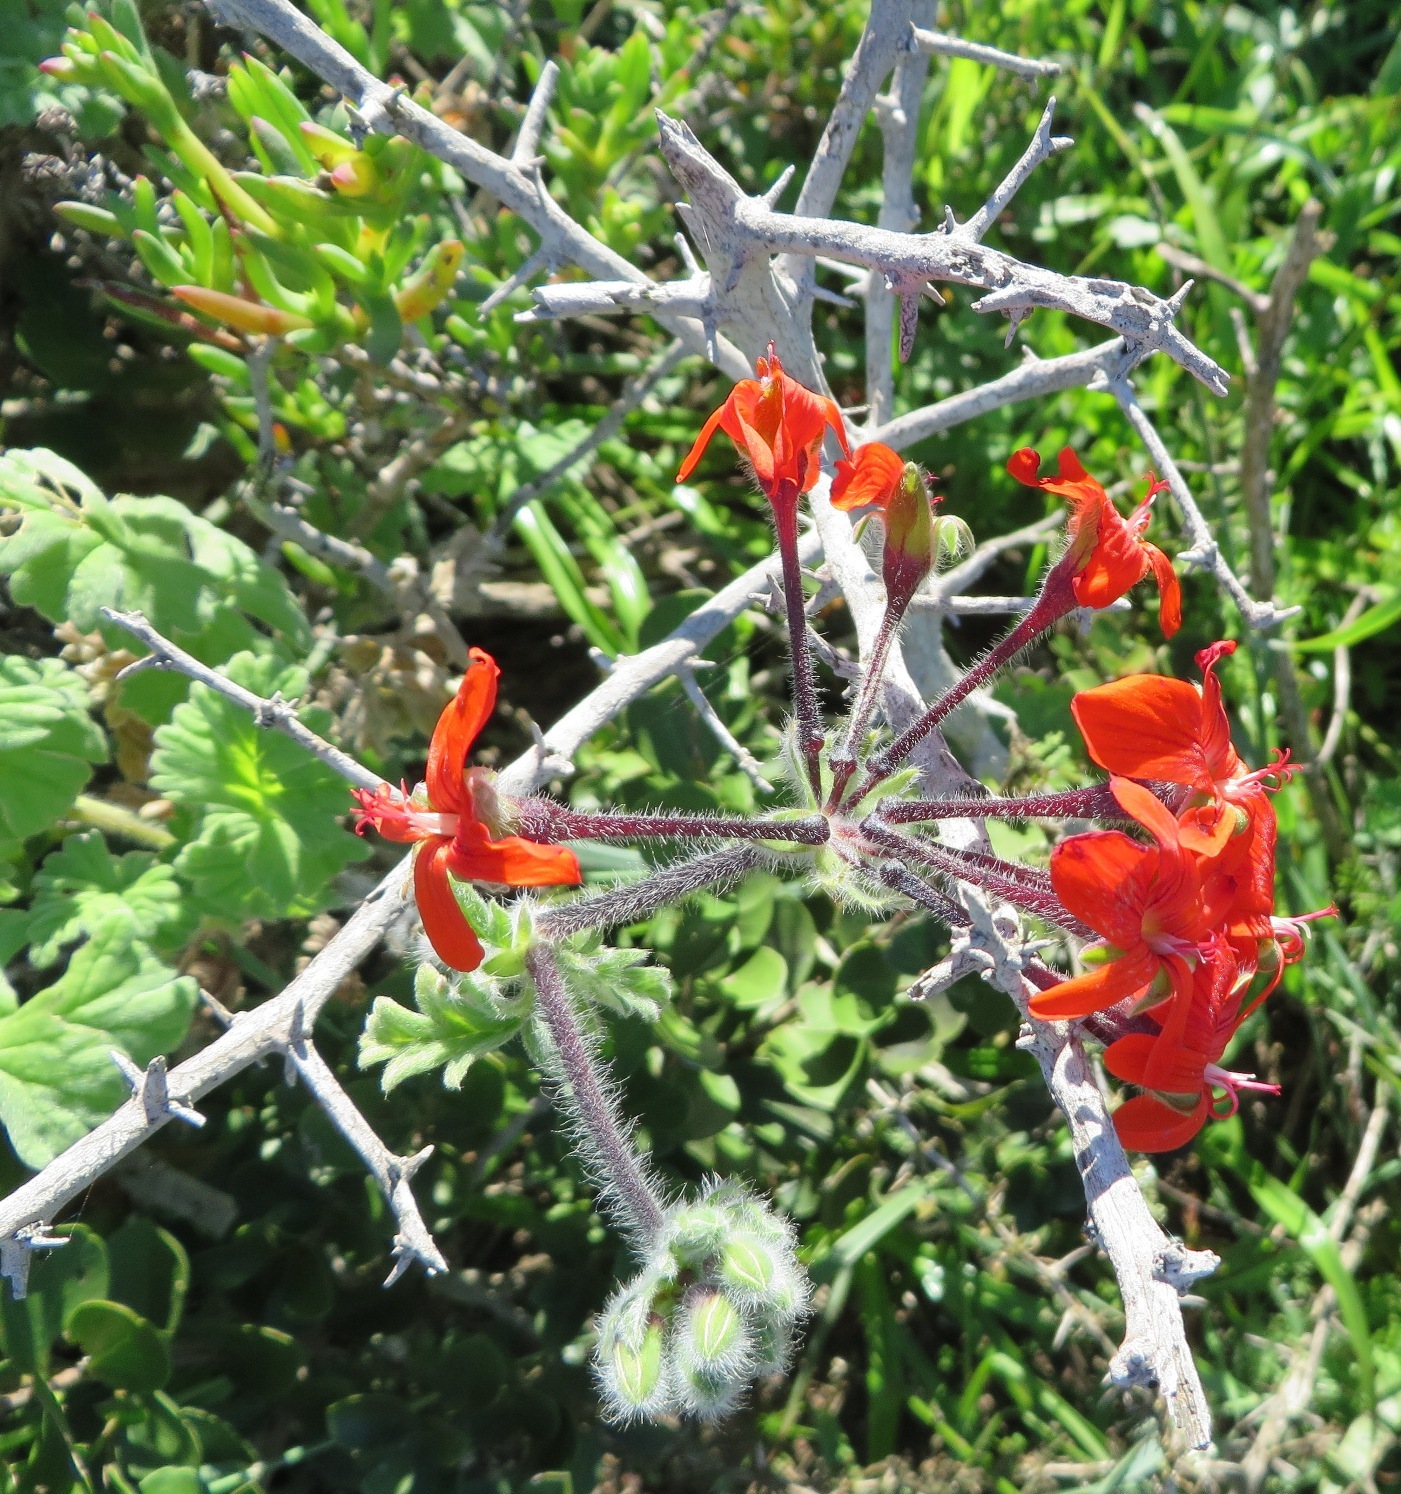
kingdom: Plantae
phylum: Tracheophyta
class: Magnoliopsida
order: Geraniales
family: Geraniaceae
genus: Pelargonium
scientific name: Pelargonium fulgidum
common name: Celandine-leaf pelargonium
